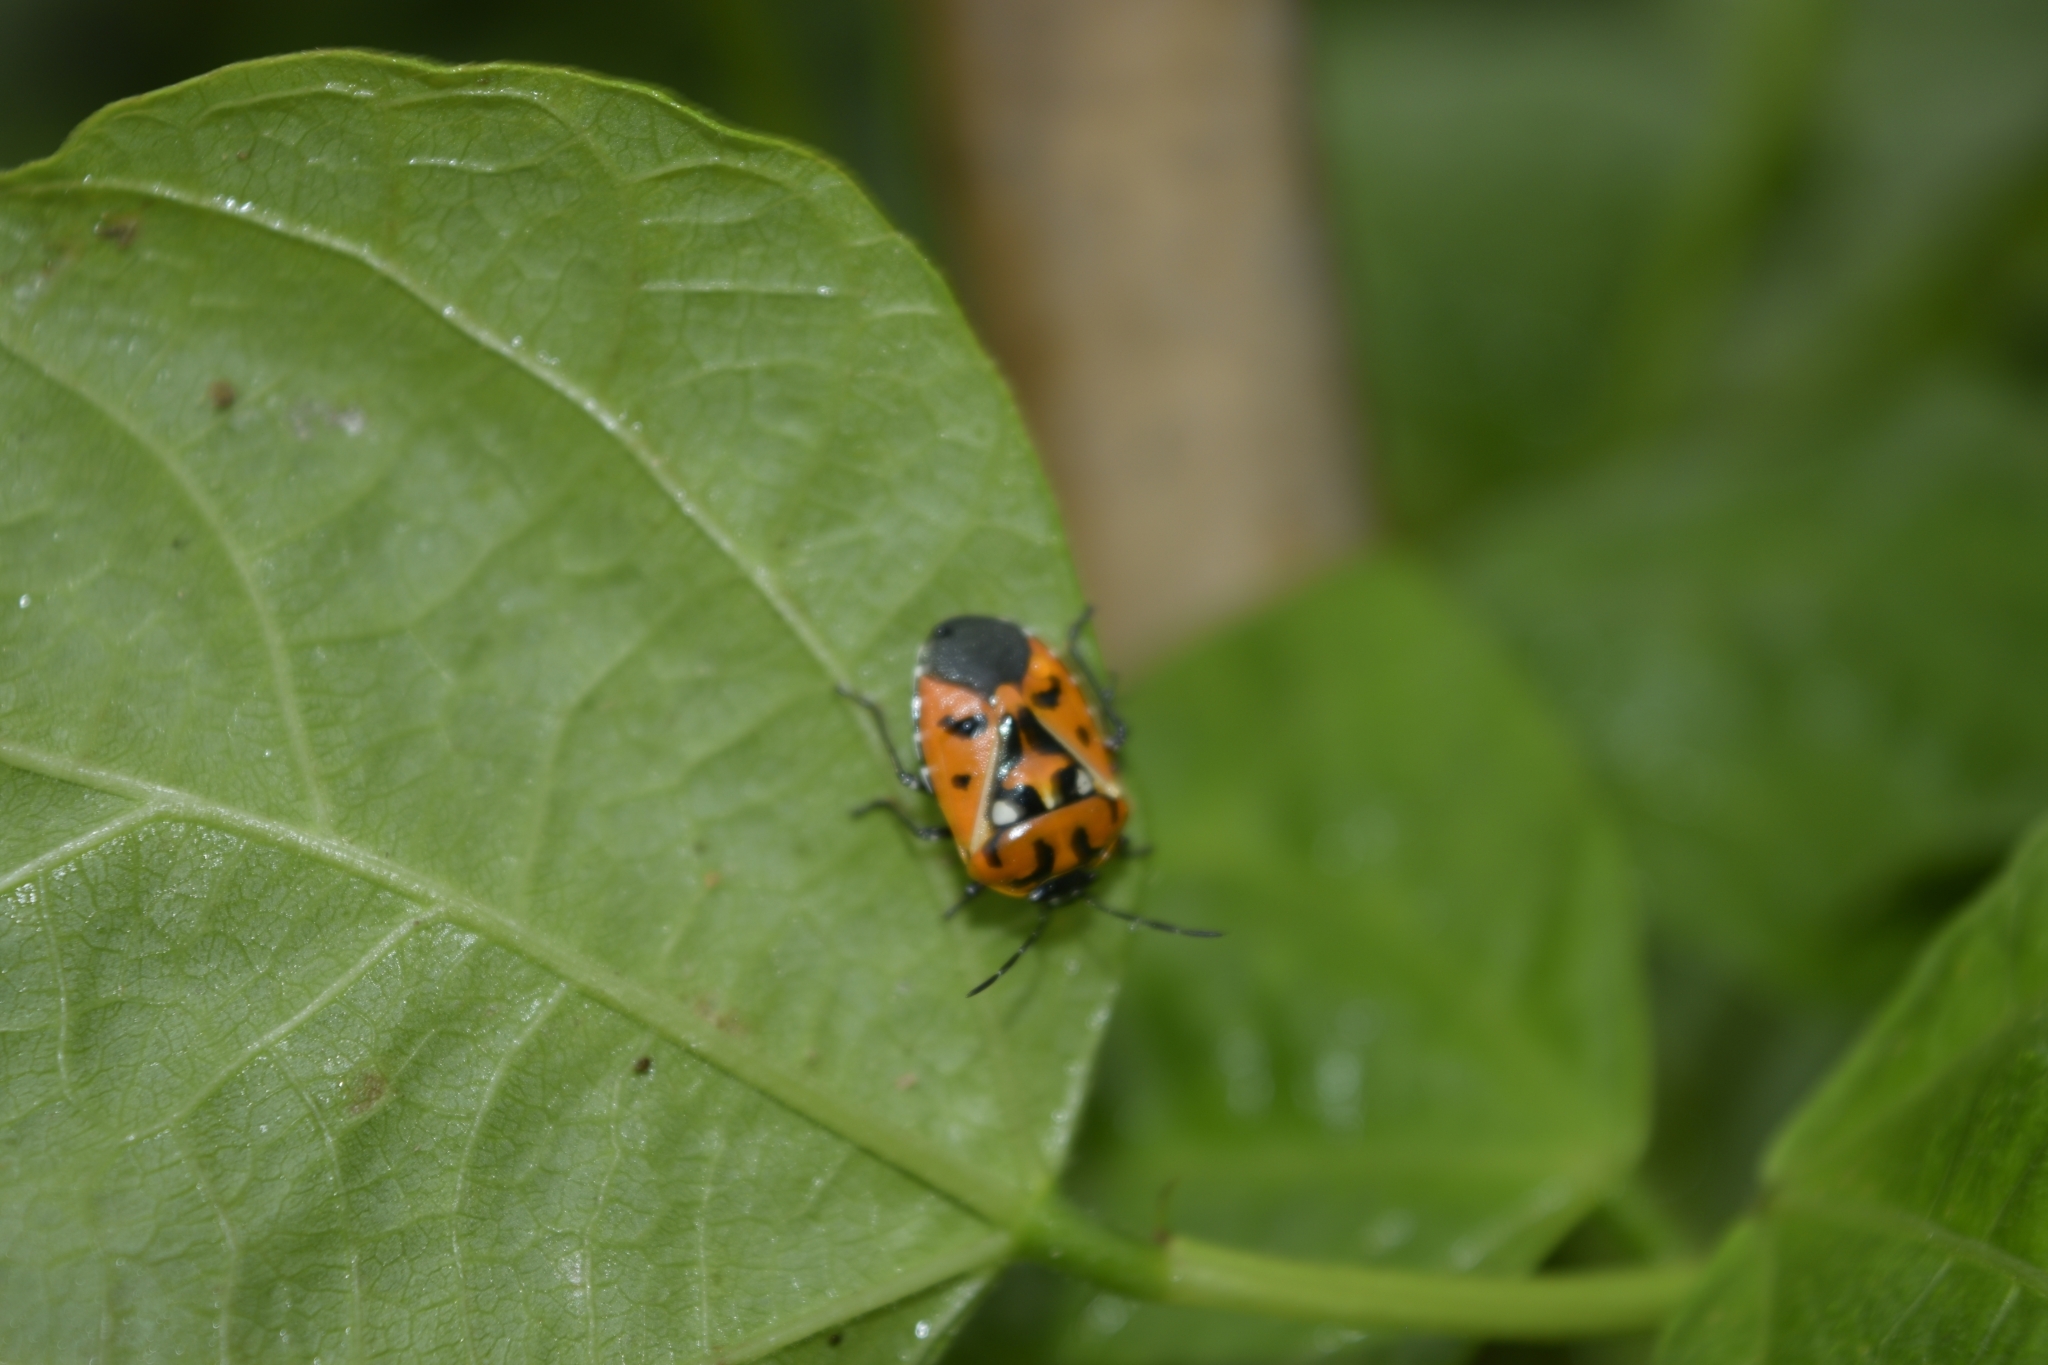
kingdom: Animalia
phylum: Arthropoda
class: Insecta
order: Hemiptera
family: Pentatomidae
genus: Murgantia
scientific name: Murgantia histrionica
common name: Harlequin bug
